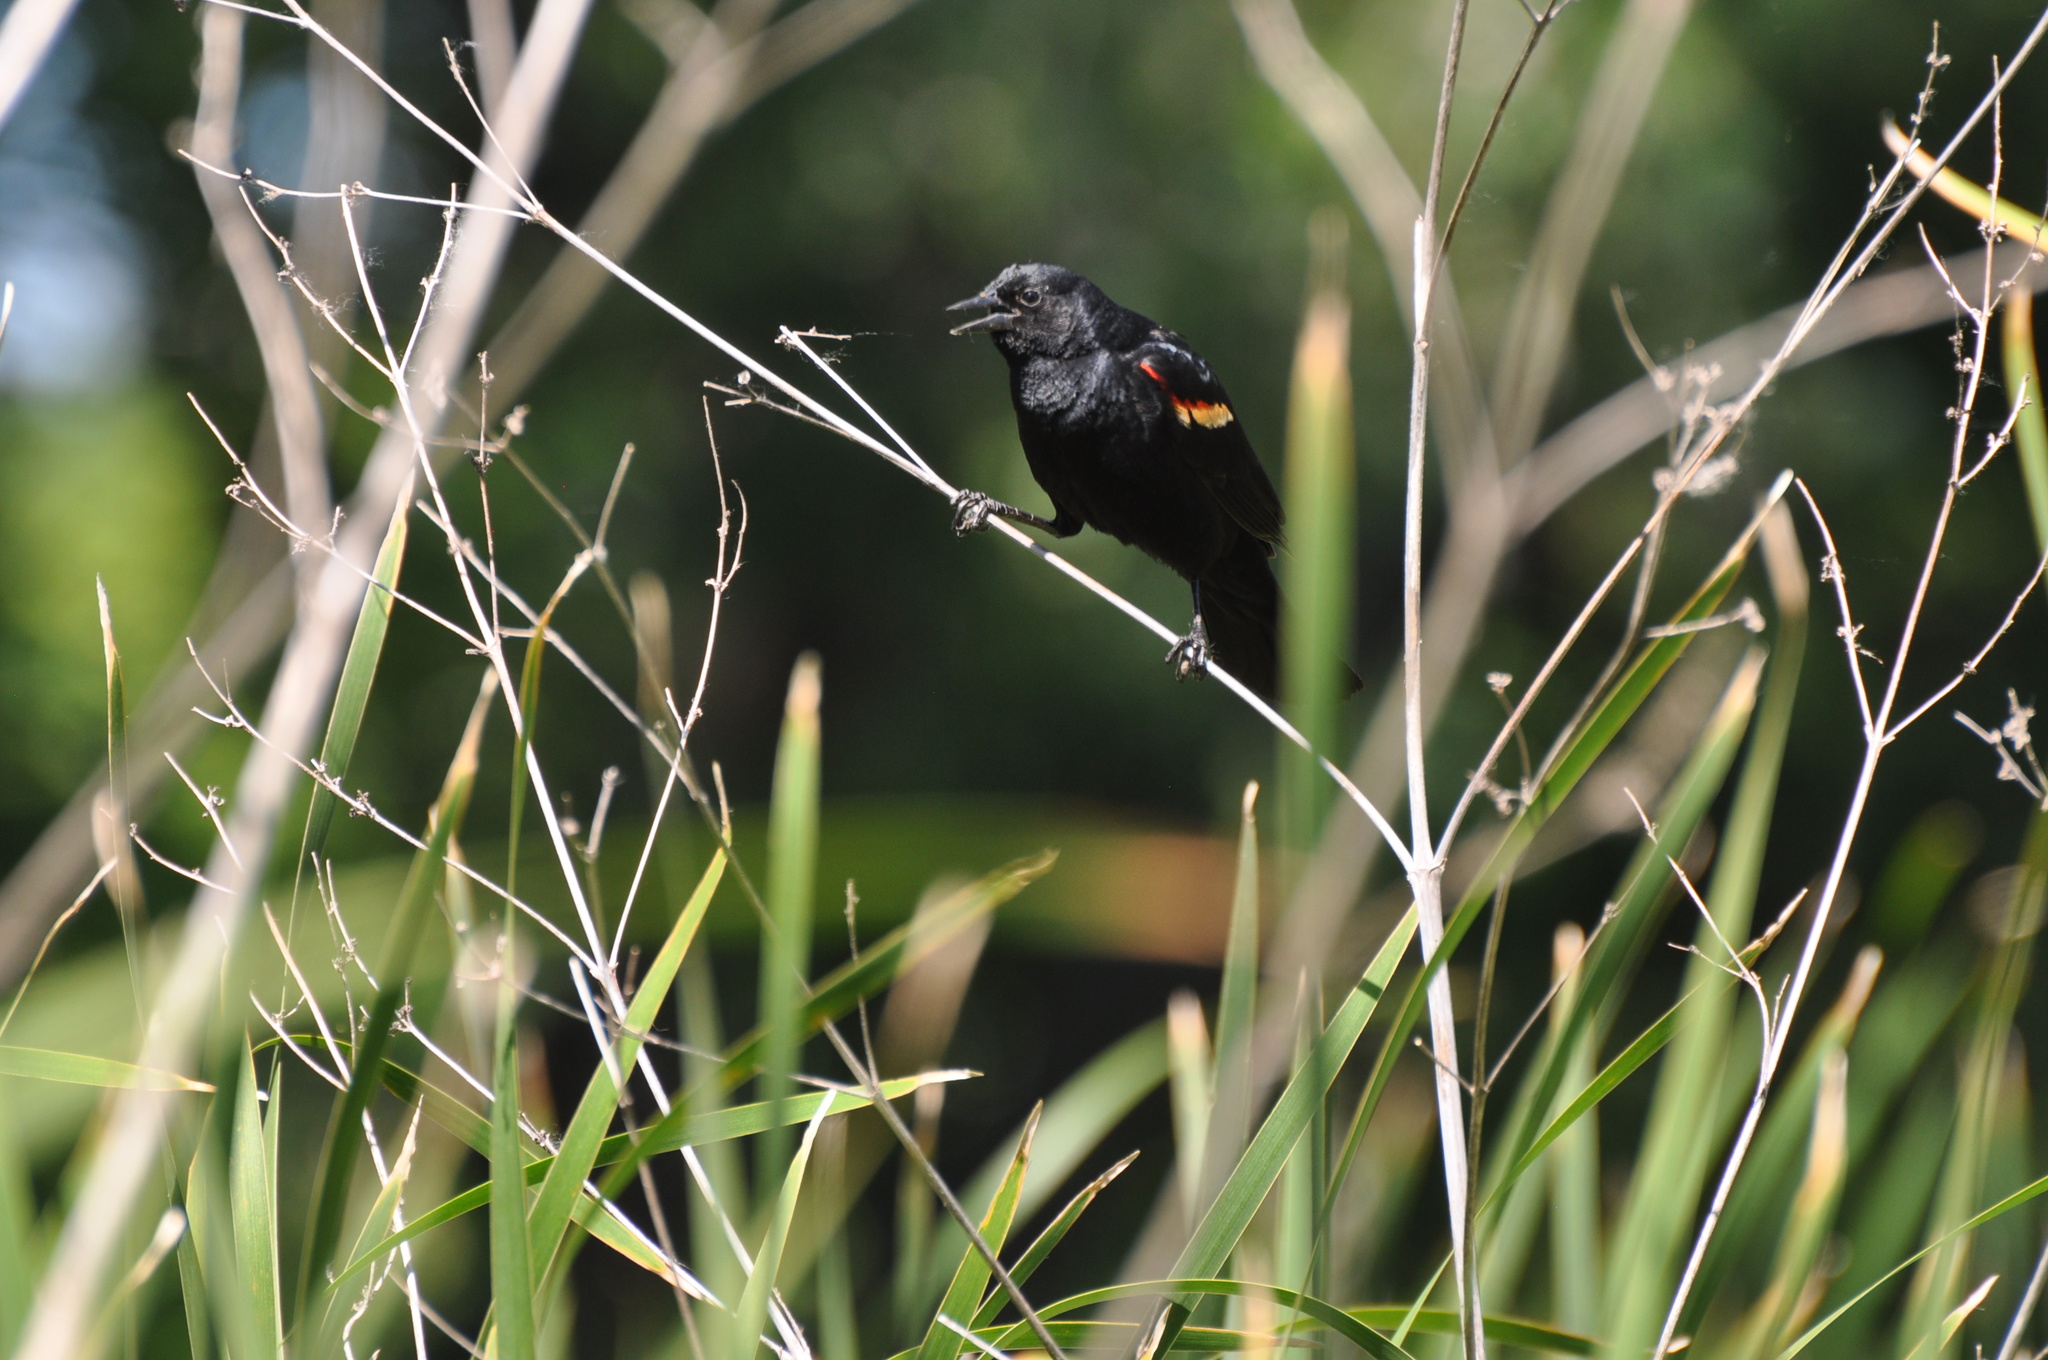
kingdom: Animalia
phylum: Chordata
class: Aves
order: Passeriformes
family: Icteridae
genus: Agelaius
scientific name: Agelaius phoeniceus
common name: Red-winged blackbird
